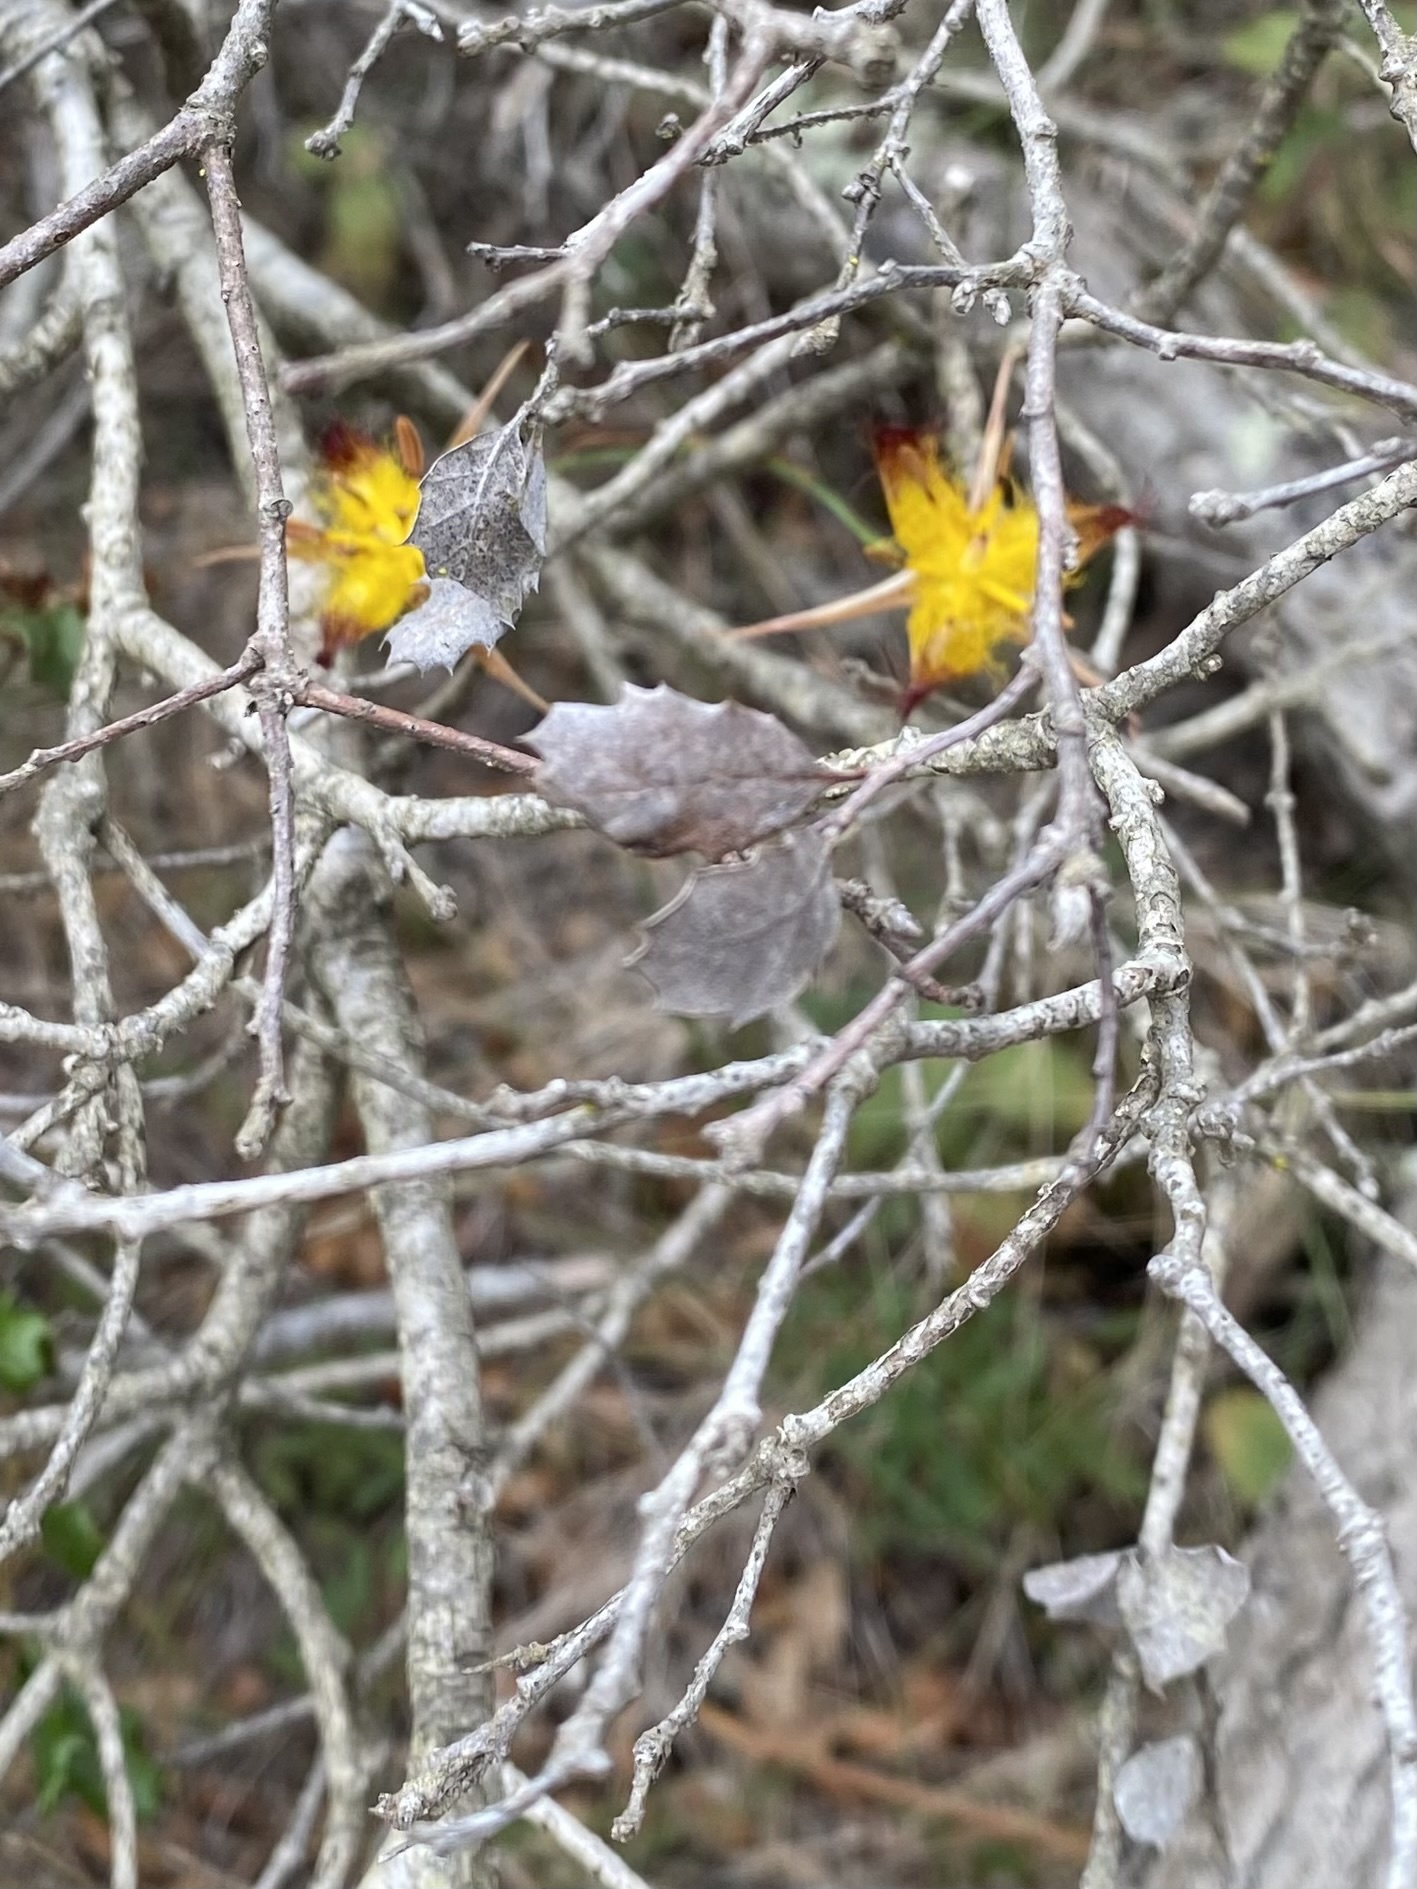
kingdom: Plantae
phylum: Tracheophyta
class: Liliopsida
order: Liliales
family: Liliaceae
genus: Calochortus
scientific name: Calochortus obispoensis
